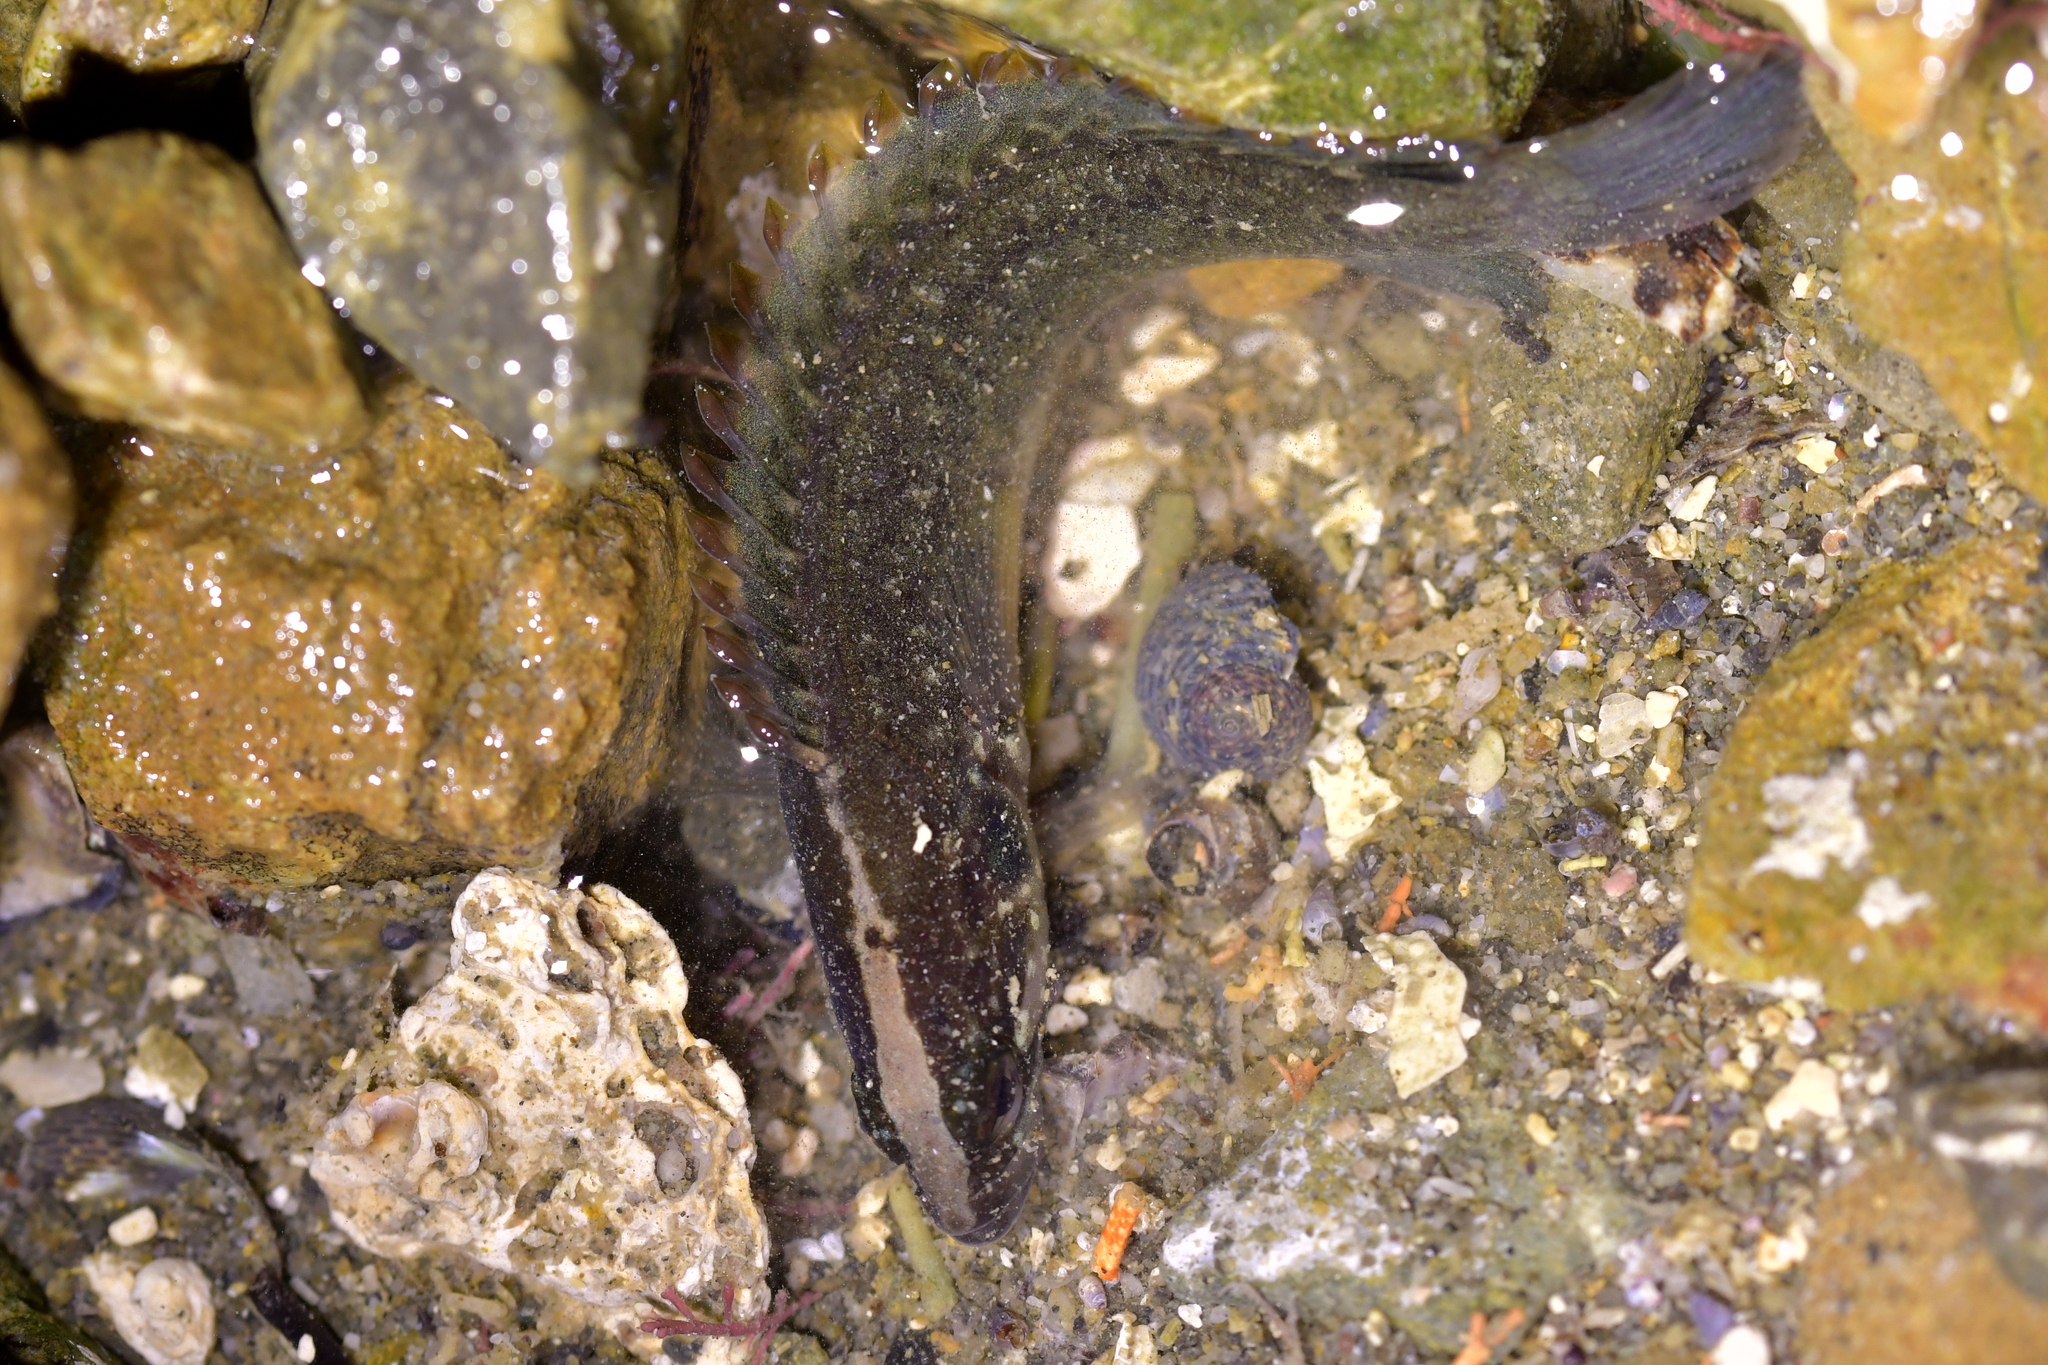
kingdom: Animalia
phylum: Chordata
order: Perciformes
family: Plesiopidae
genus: Acanthoclinus
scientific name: Acanthoclinus fuscus
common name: Olive rockfish
